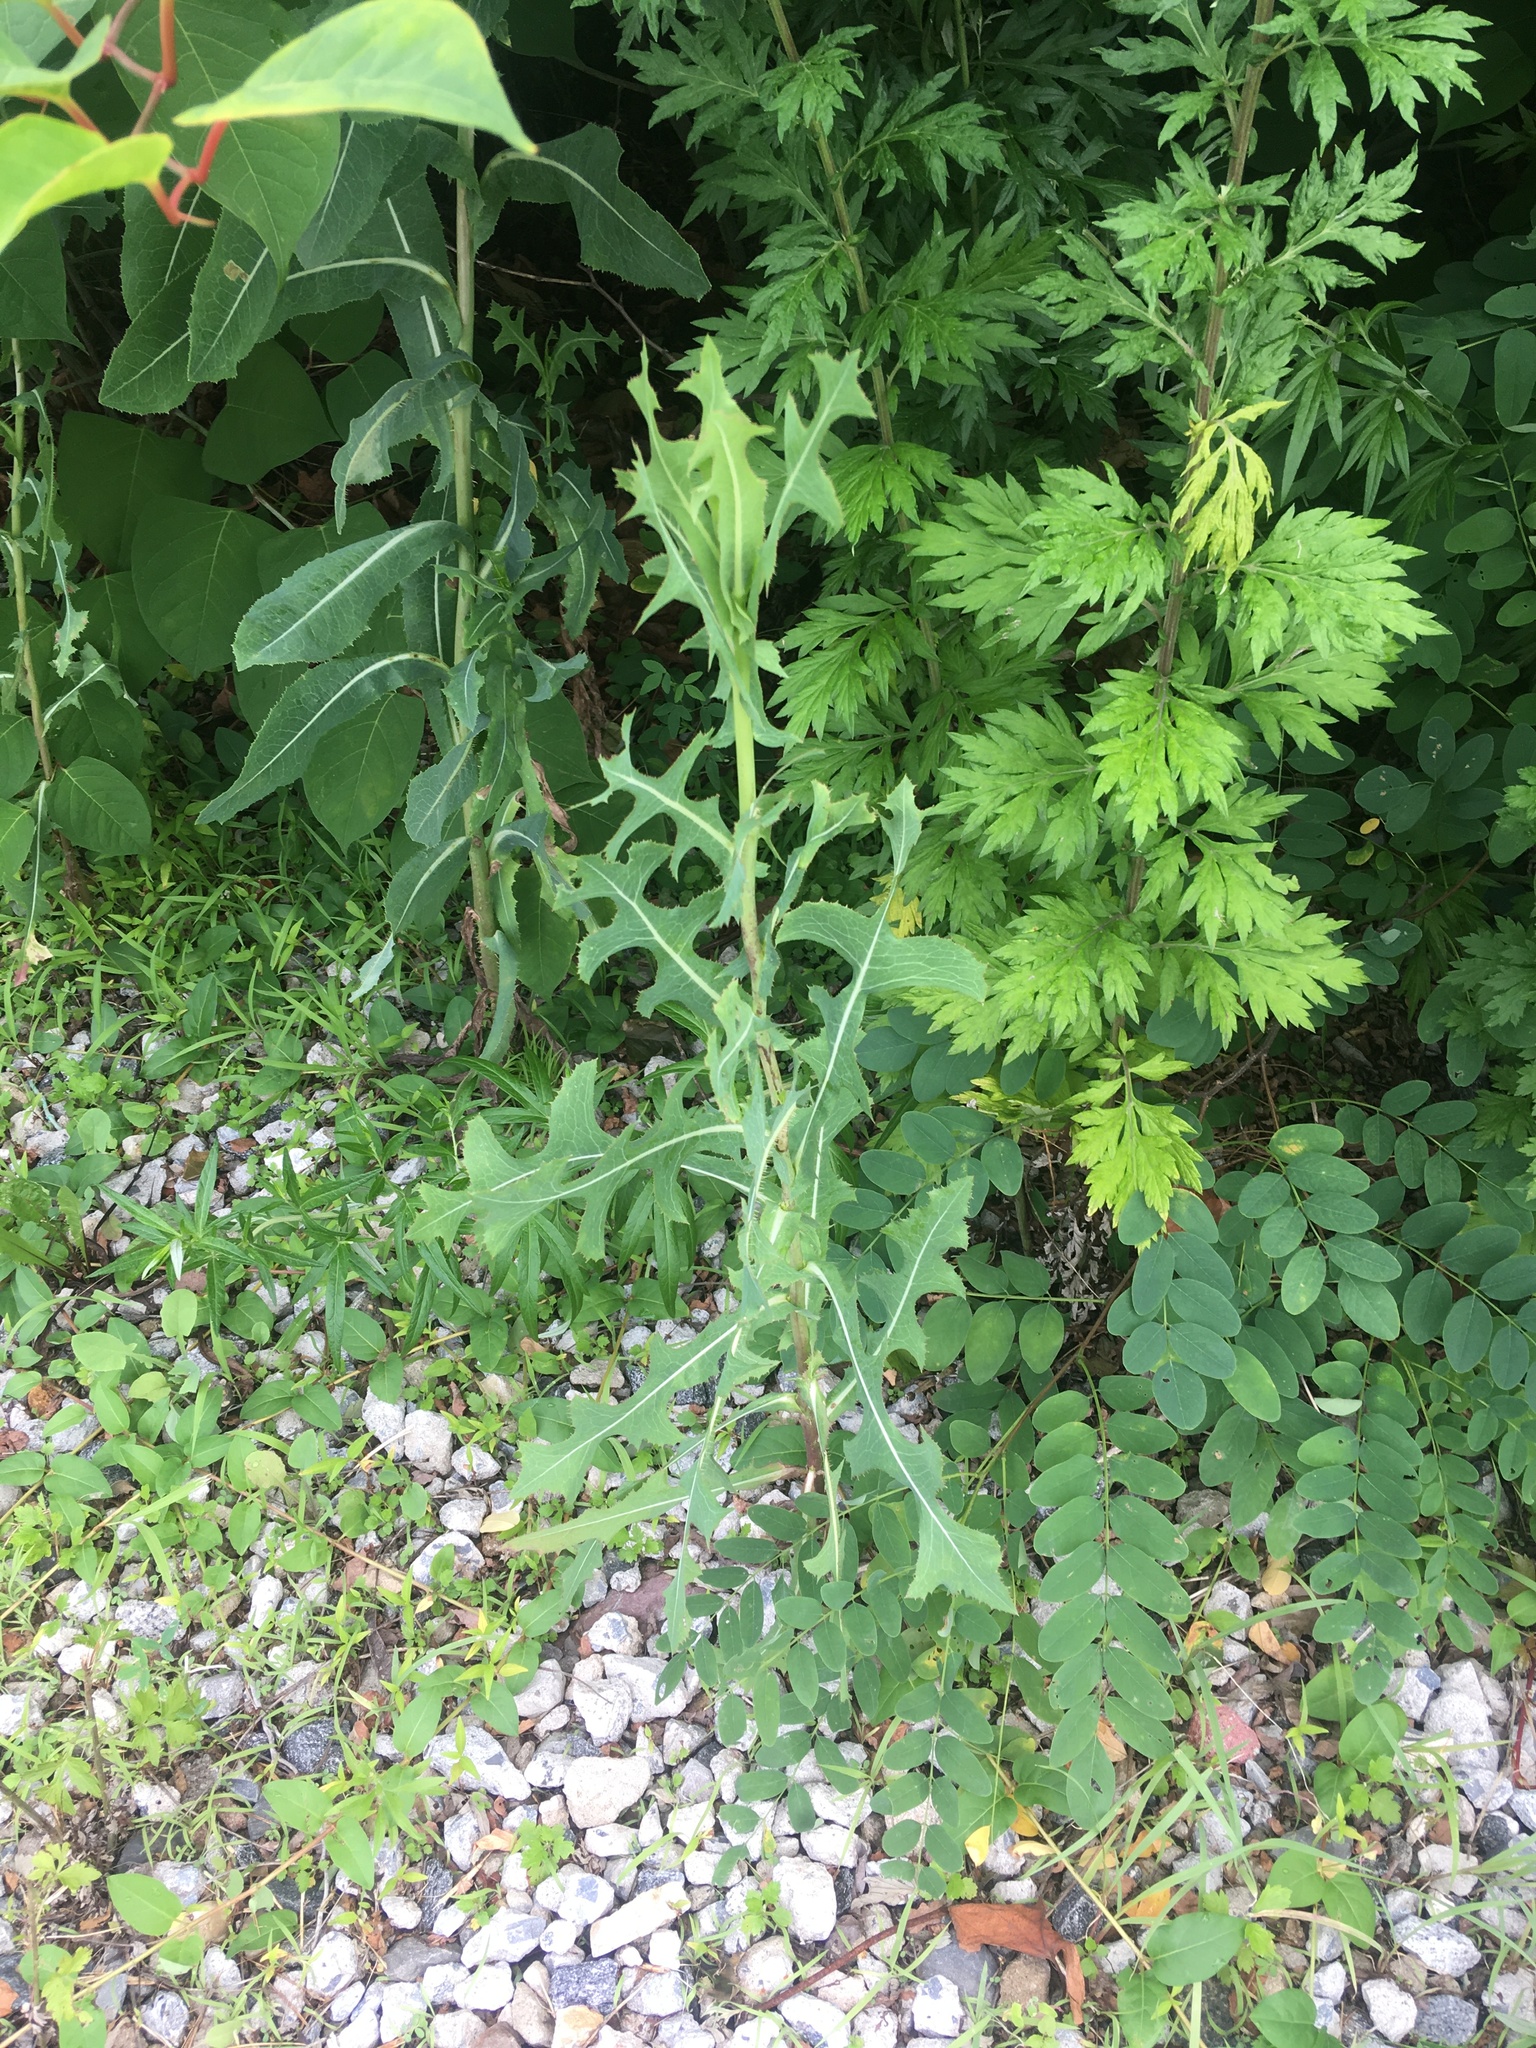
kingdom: Plantae
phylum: Tracheophyta
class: Magnoliopsida
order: Asterales
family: Asteraceae
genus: Lactuca
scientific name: Lactuca serriola
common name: Prickly lettuce
